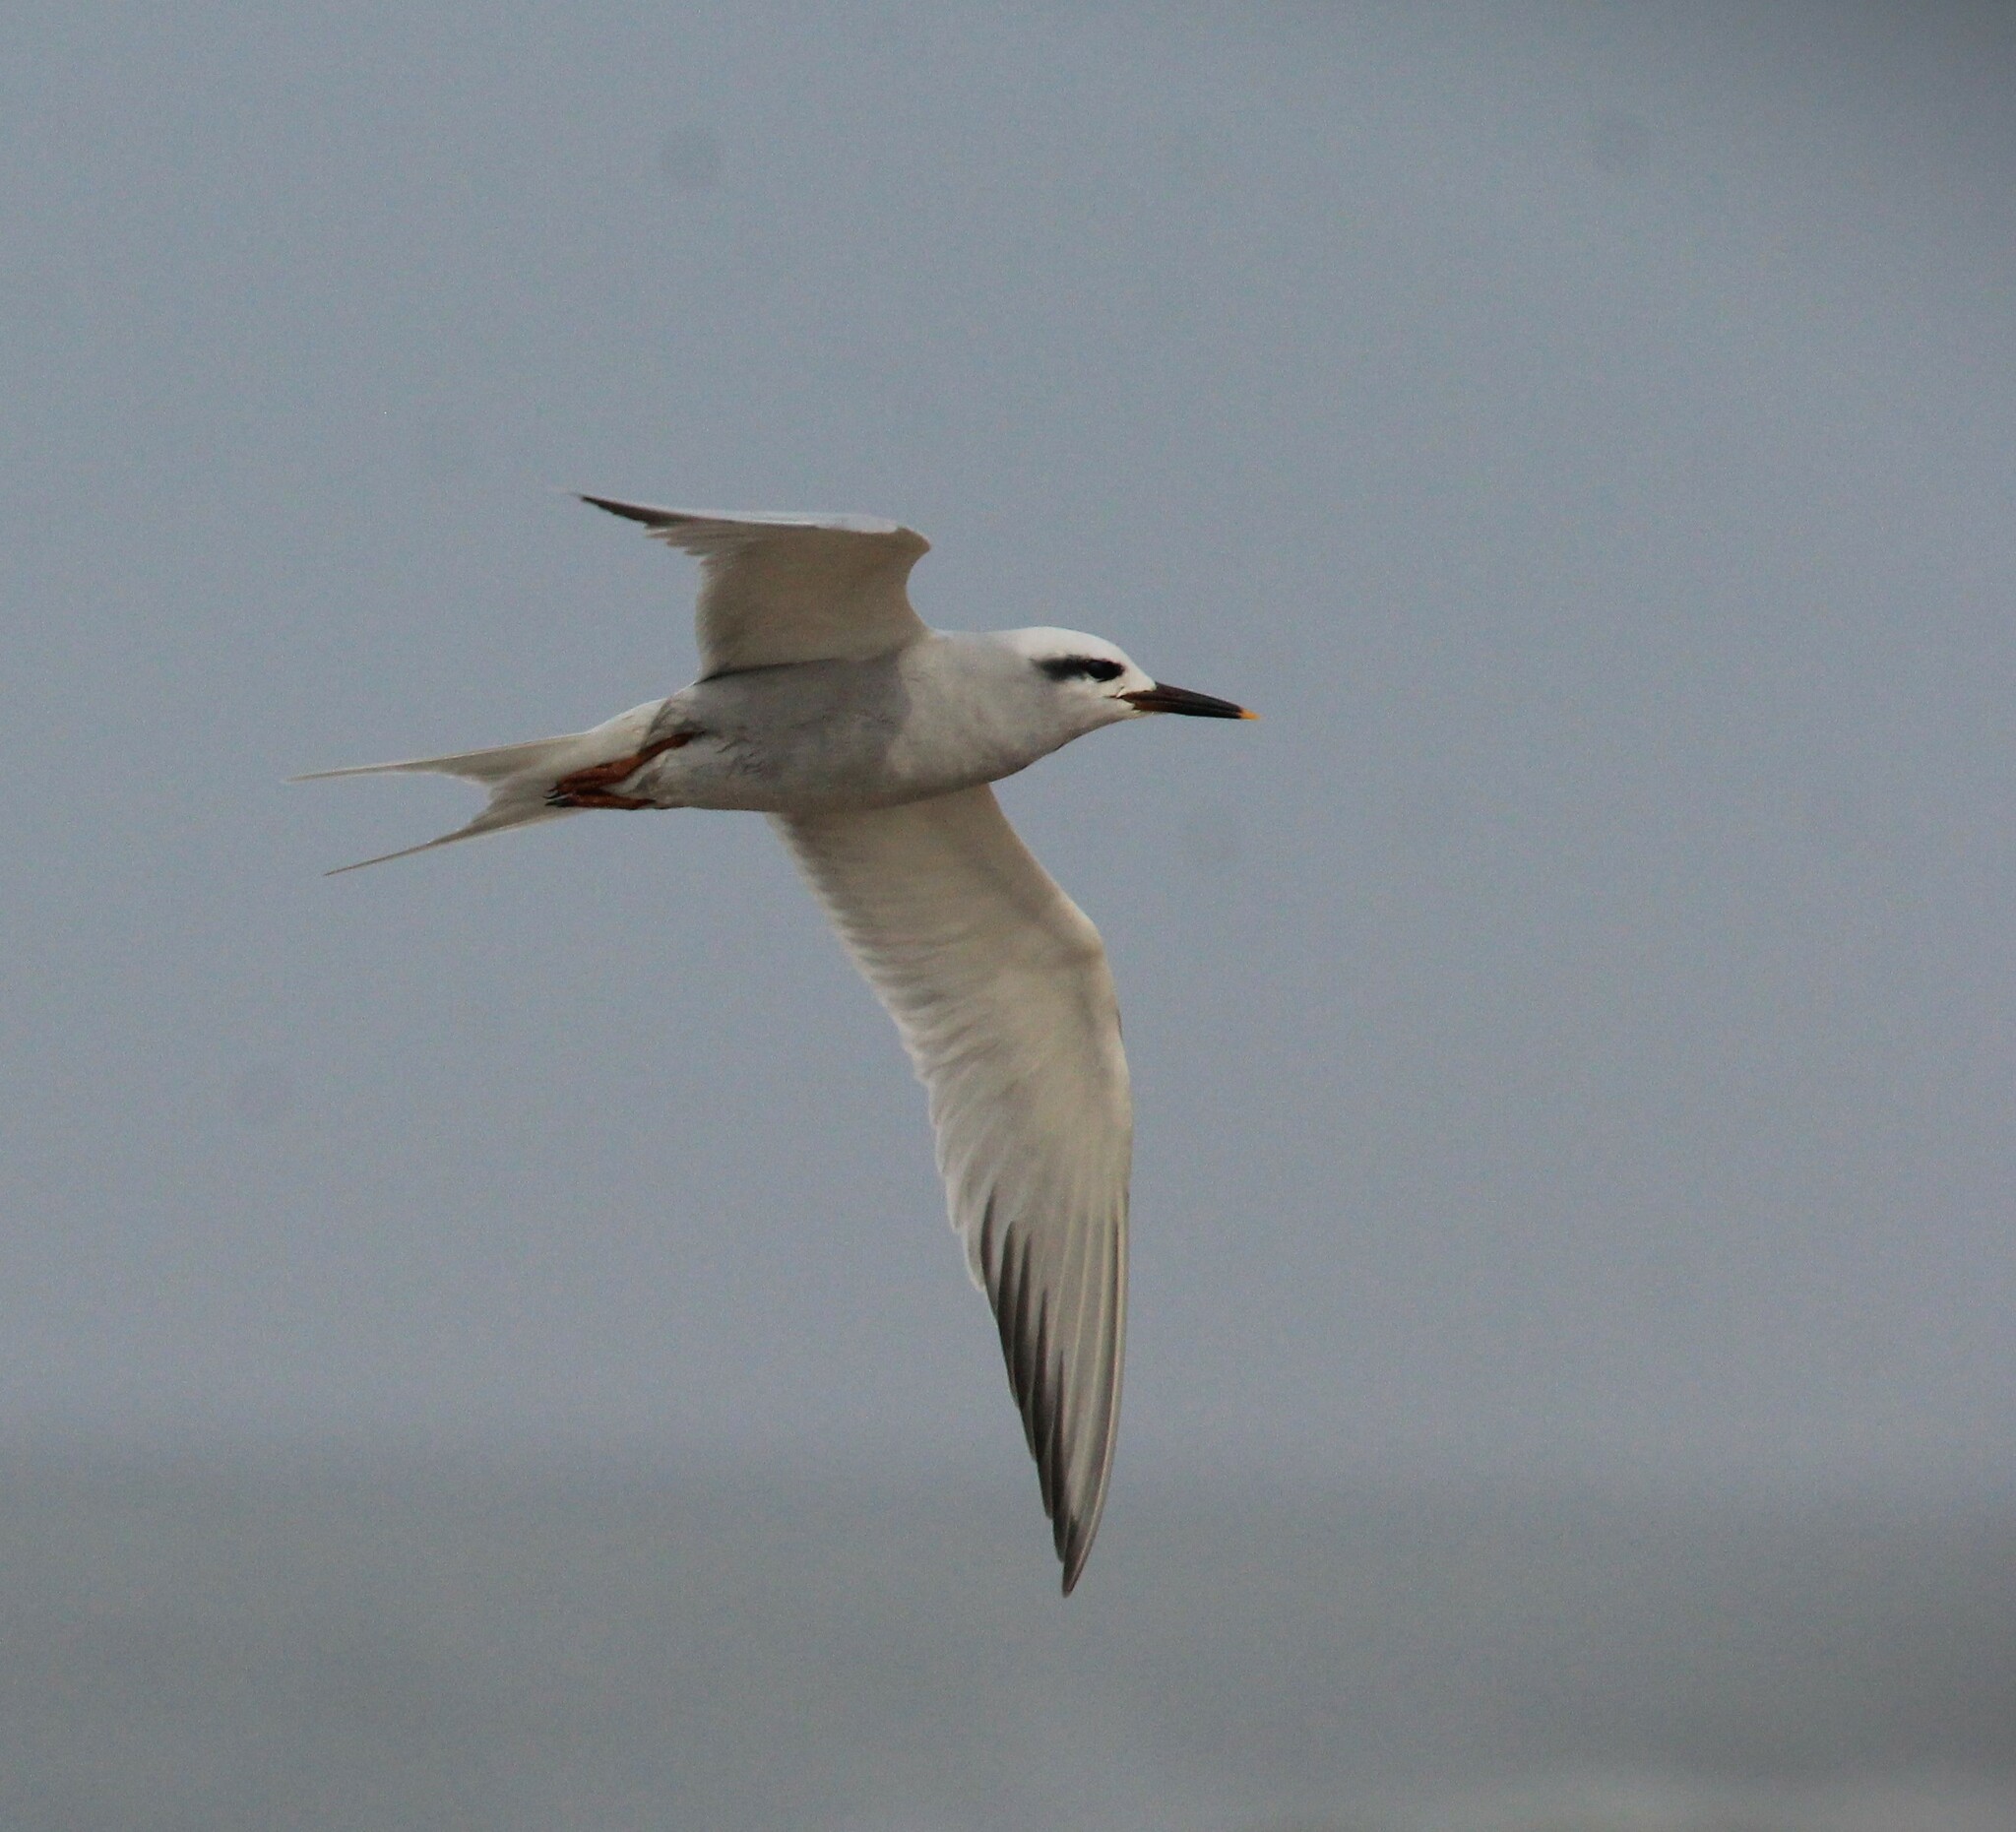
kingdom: Animalia
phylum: Chordata
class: Aves
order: Charadriiformes
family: Laridae
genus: Sterna
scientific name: Sterna trudeaui
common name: Snowy-crowned tern
